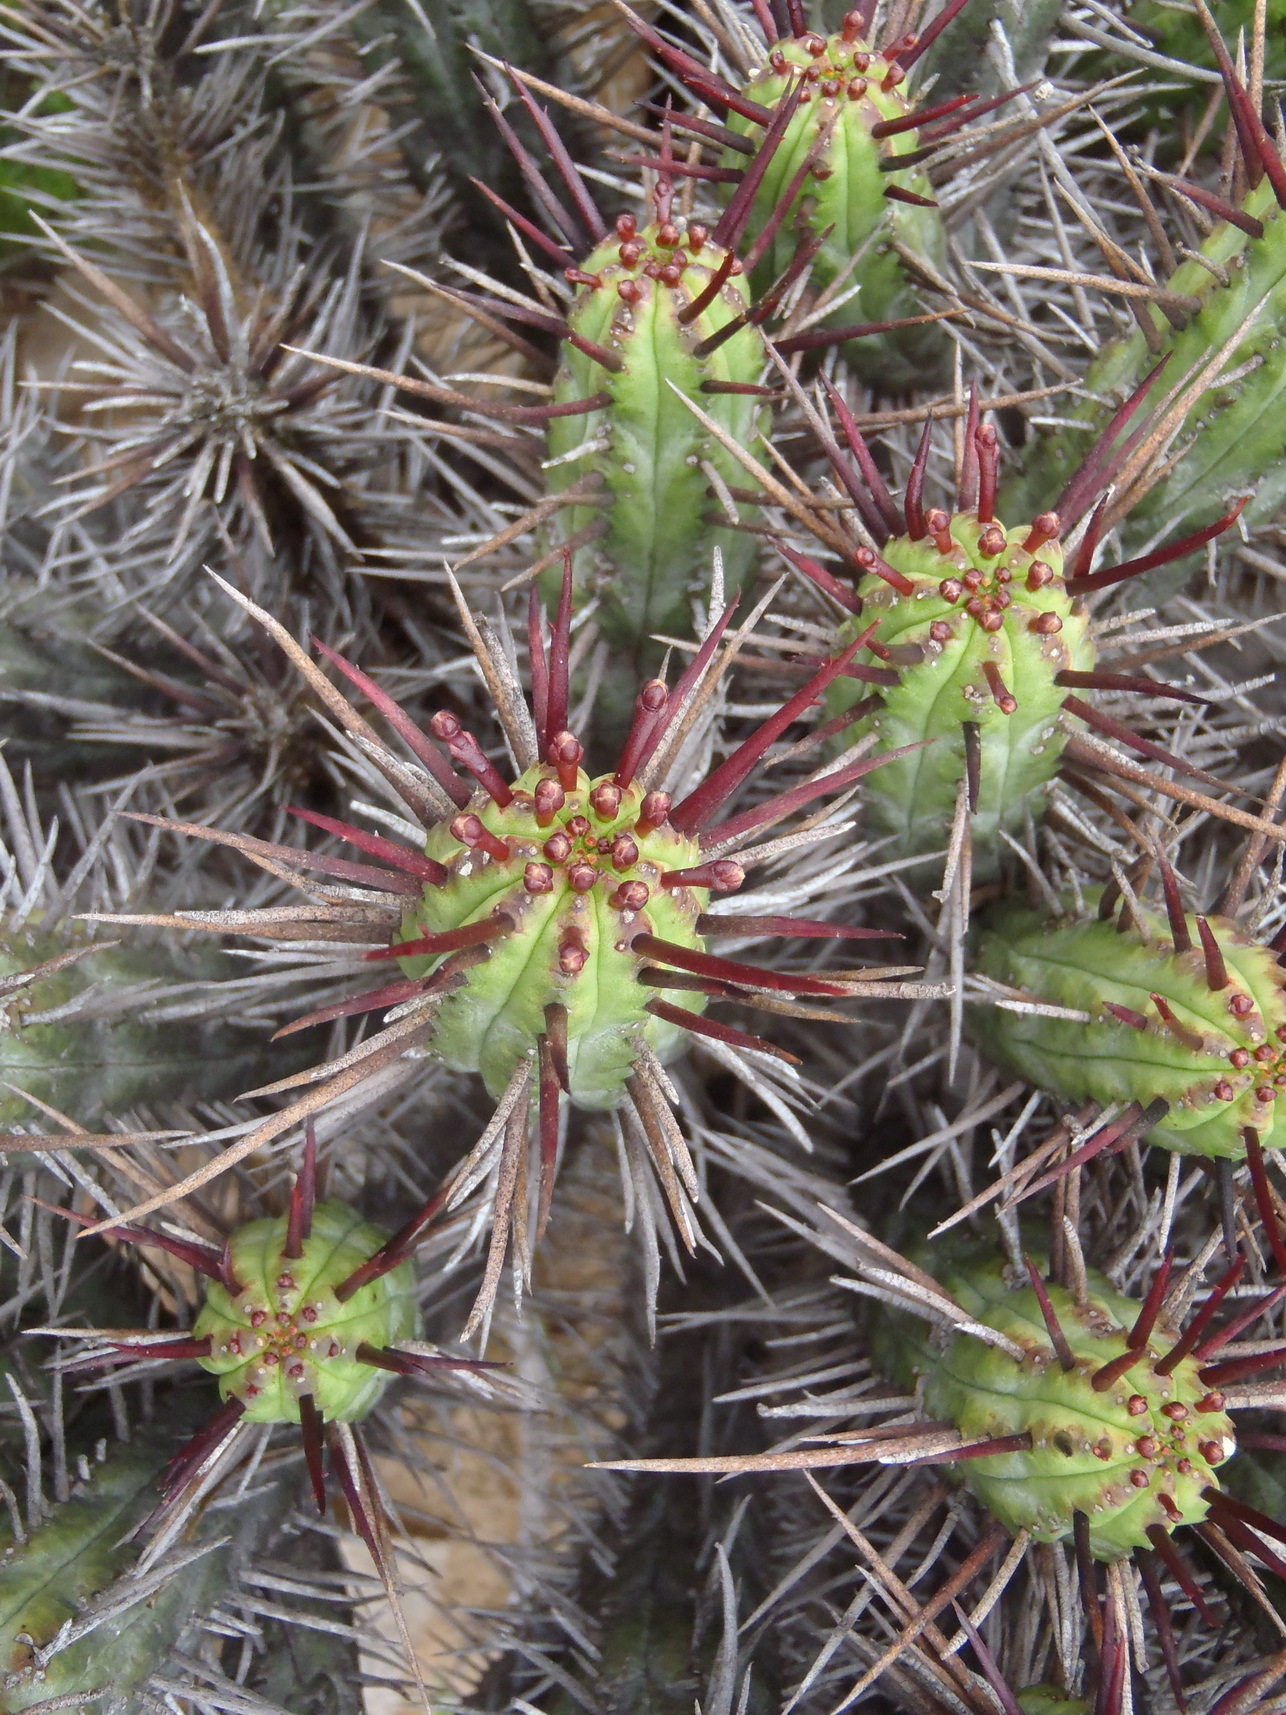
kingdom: Plantae
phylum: Tracheophyta
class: Magnoliopsida
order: Malpighiales
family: Euphorbiaceae
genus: Euphorbia
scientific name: Euphorbia heptagona
